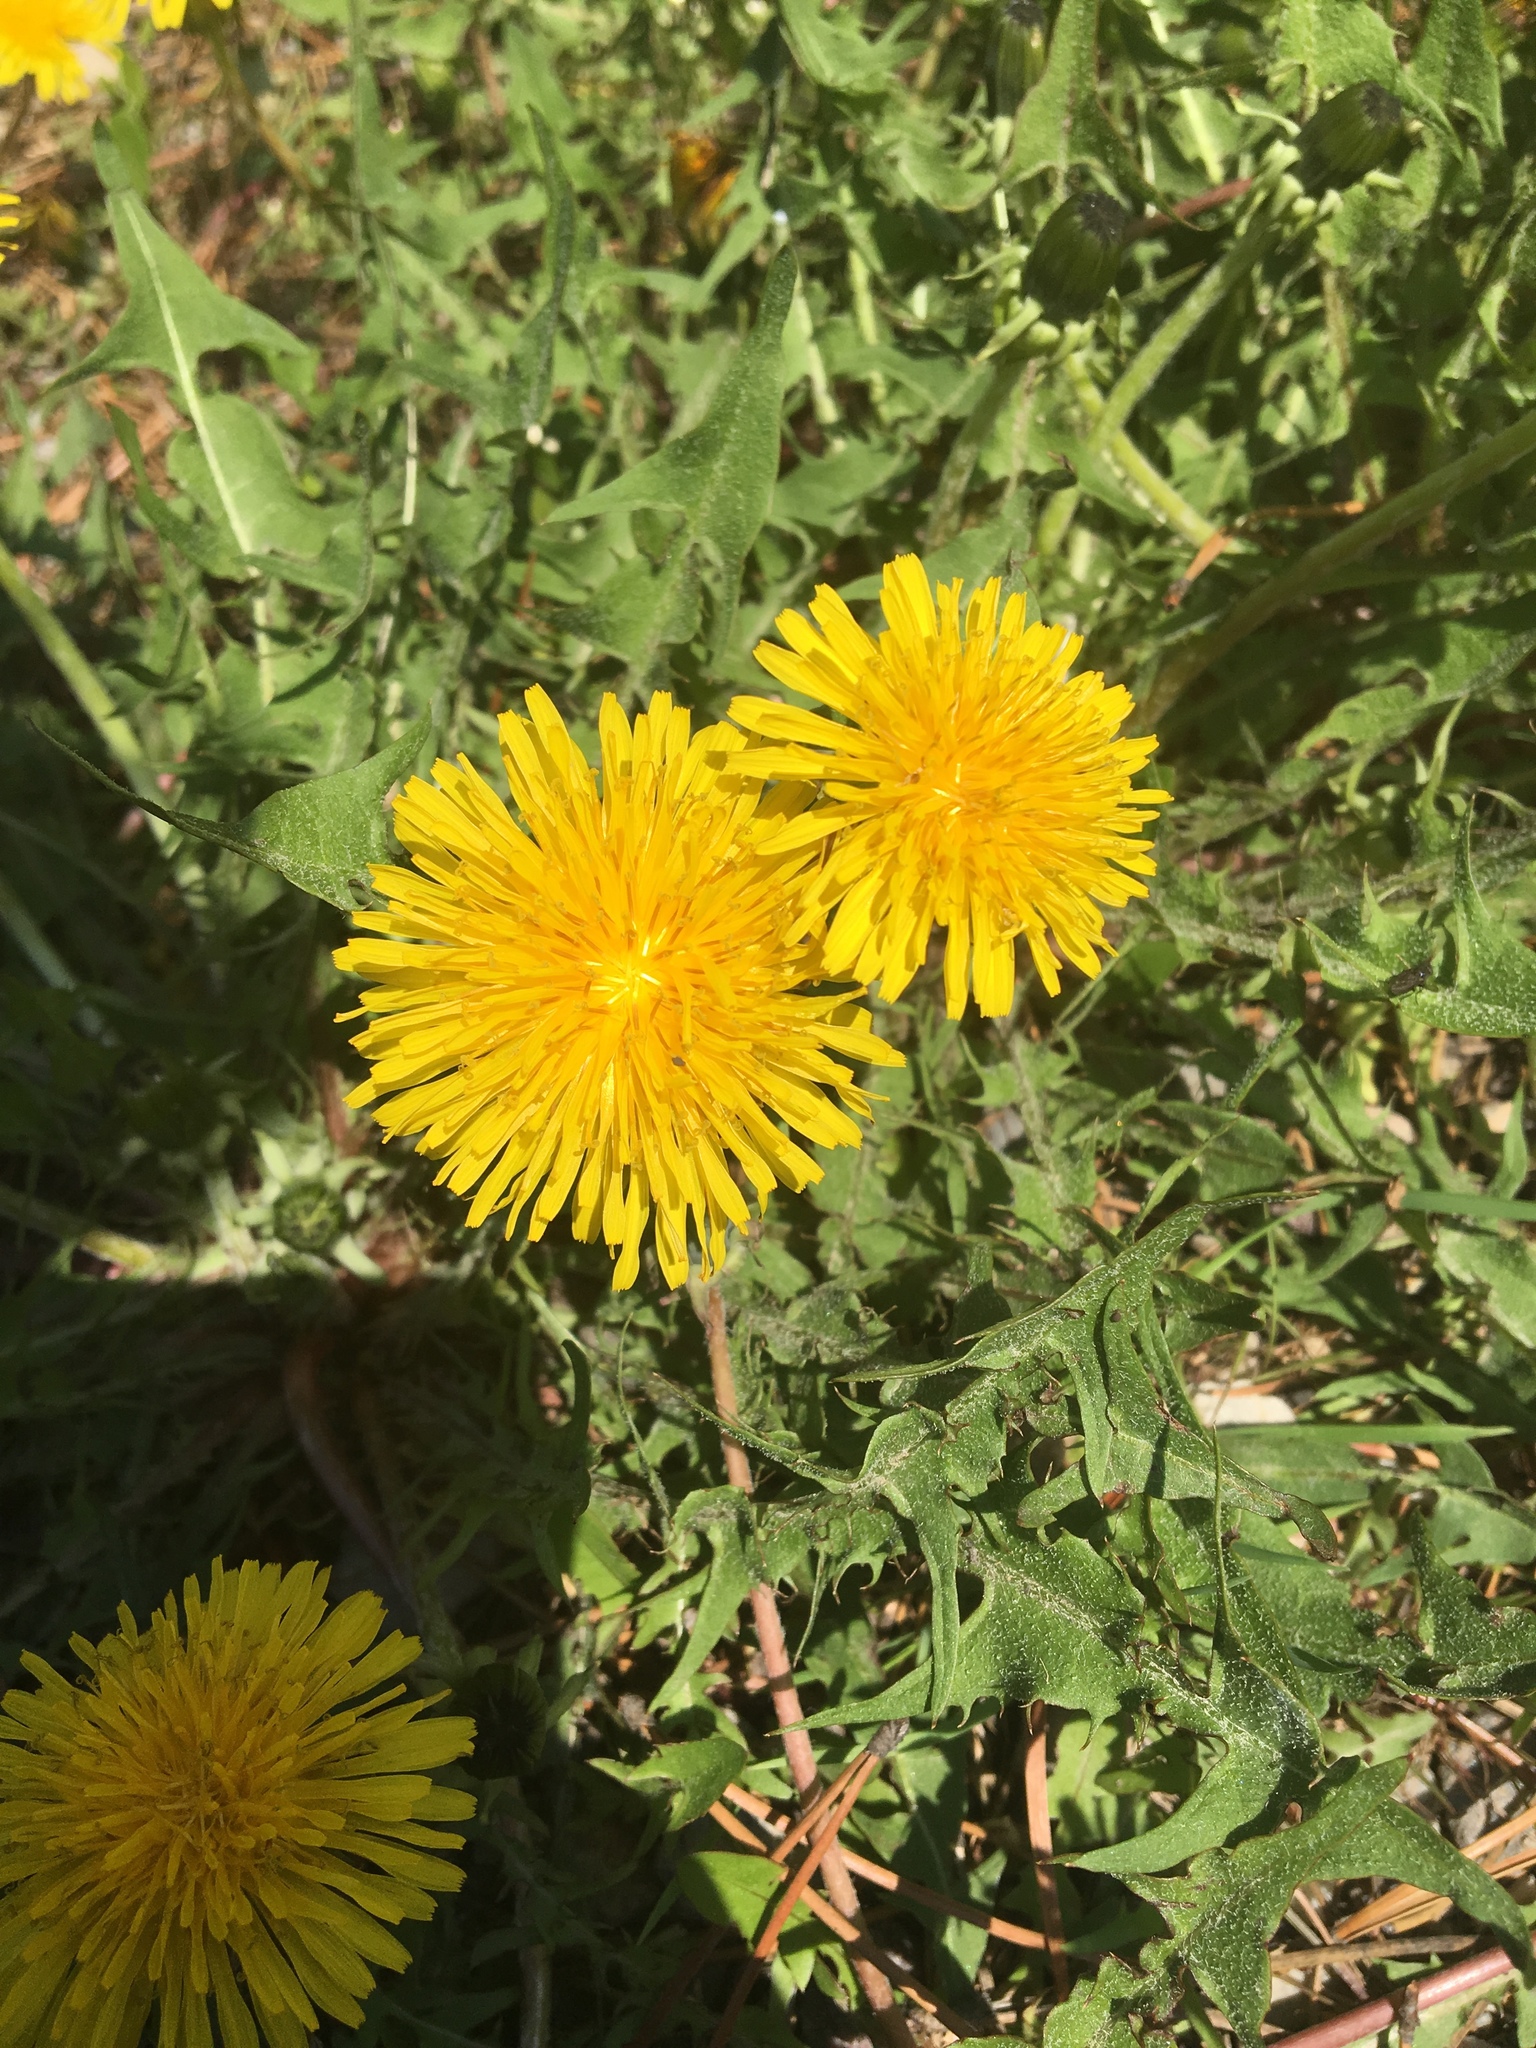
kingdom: Plantae
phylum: Tracheophyta
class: Magnoliopsida
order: Asterales
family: Asteraceae
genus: Taraxacum
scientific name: Taraxacum officinale
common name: Common dandelion
